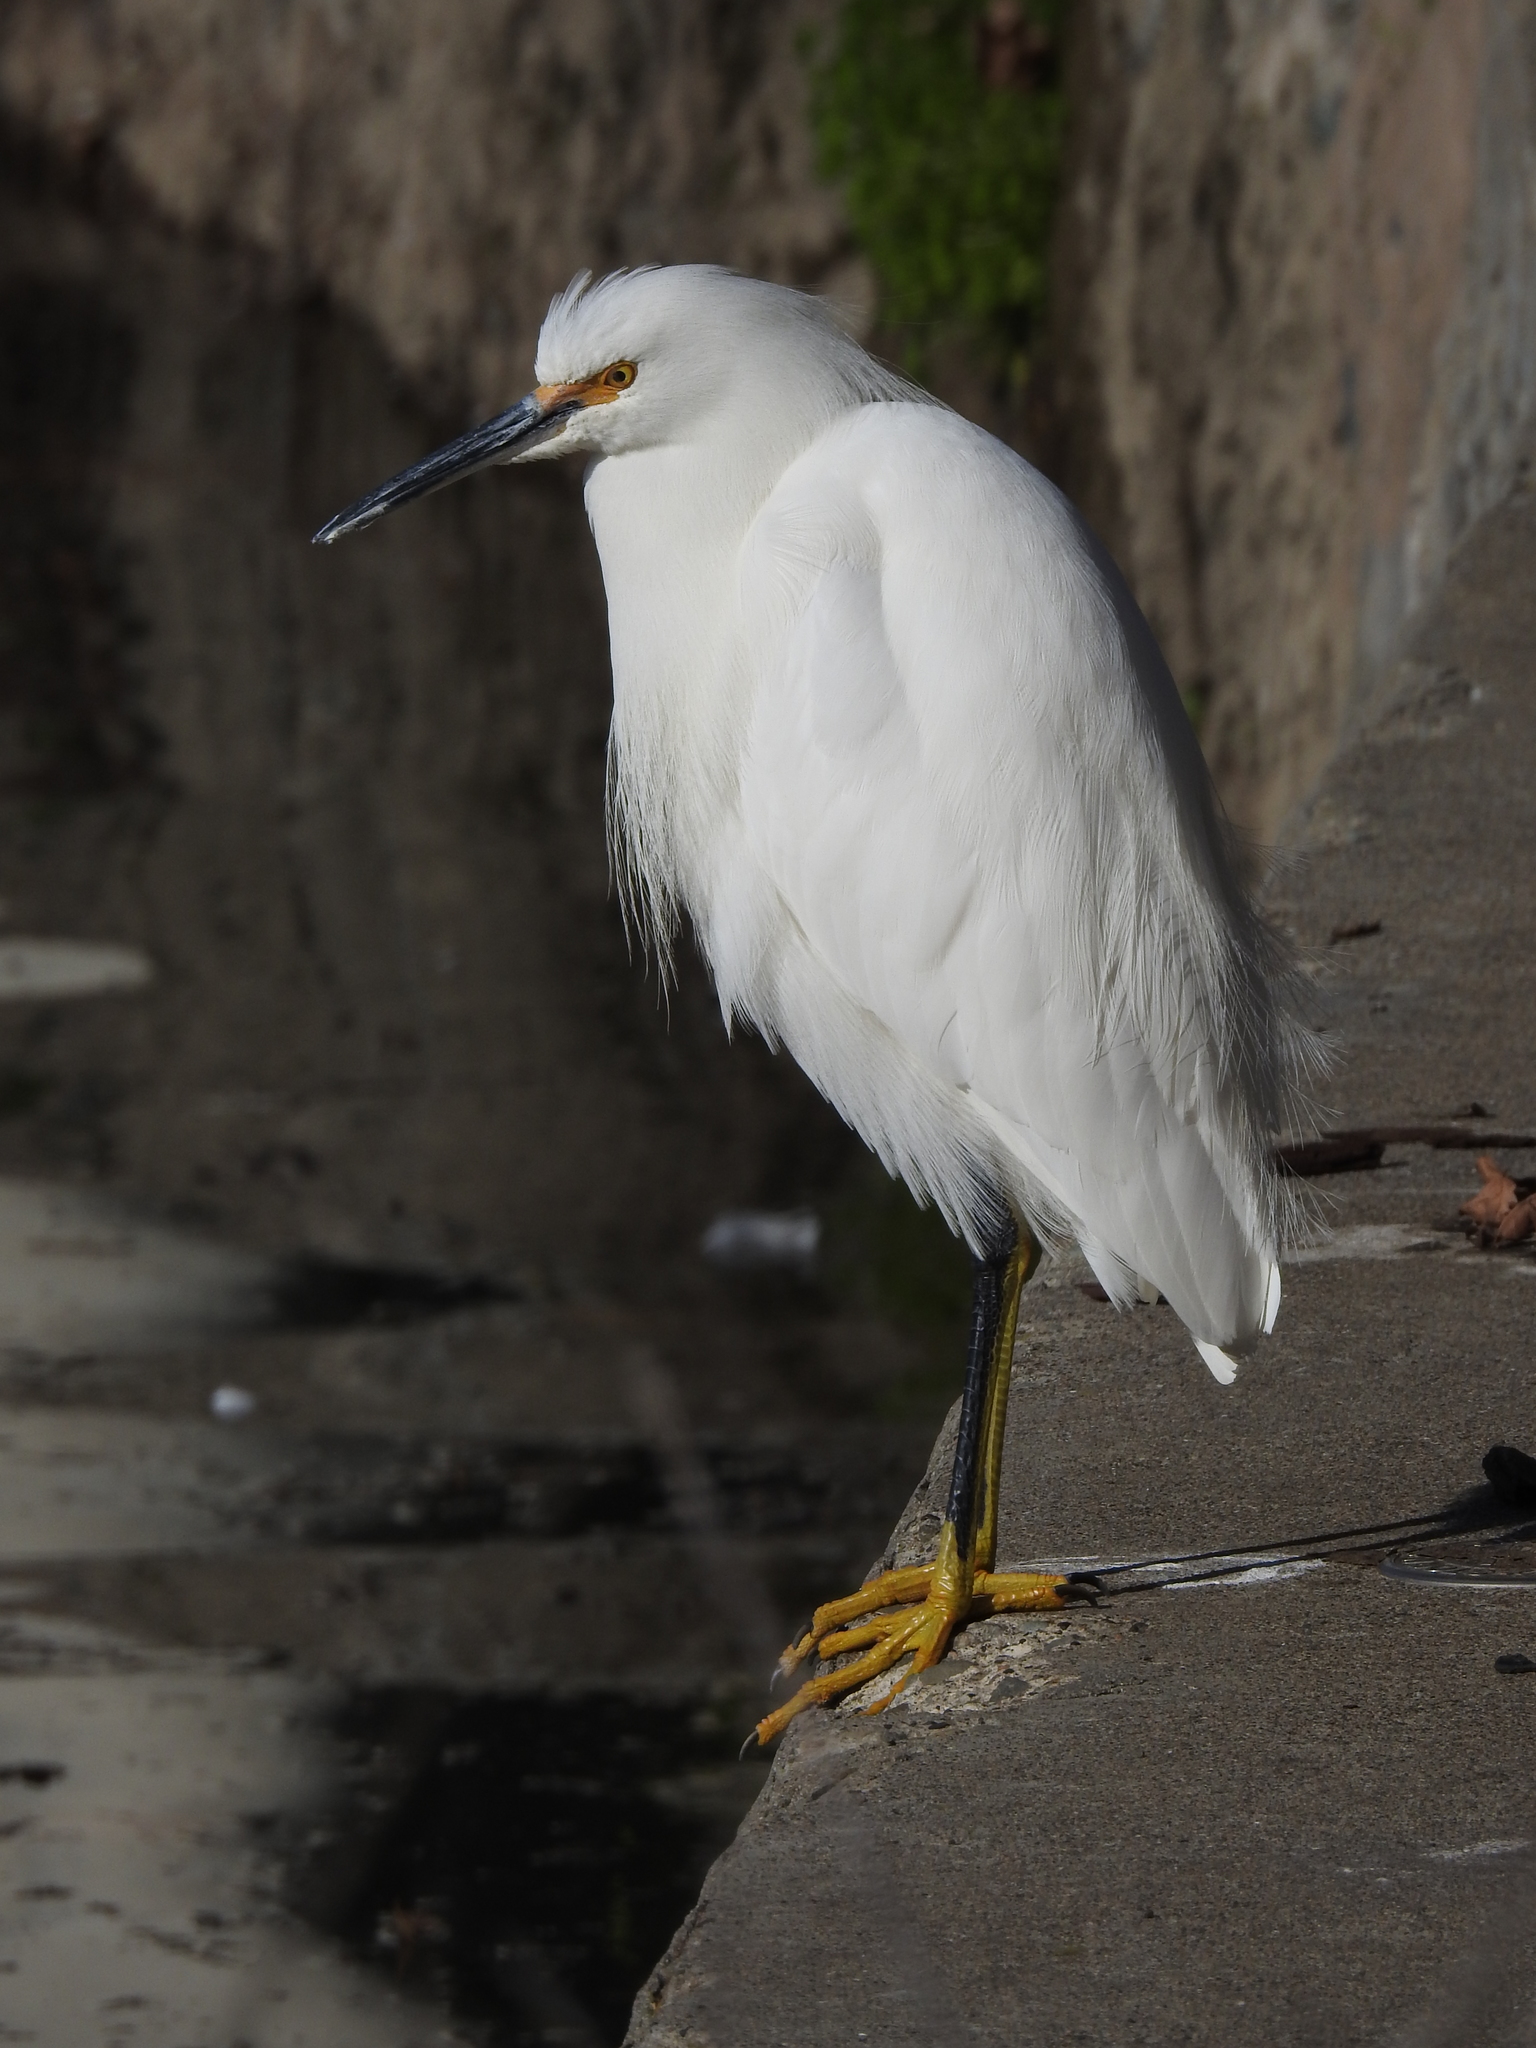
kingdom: Animalia
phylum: Chordata
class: Aves
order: Pelecaniformes
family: Ardeidae
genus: Egretta
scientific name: Egretta thula
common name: Snowy egret
